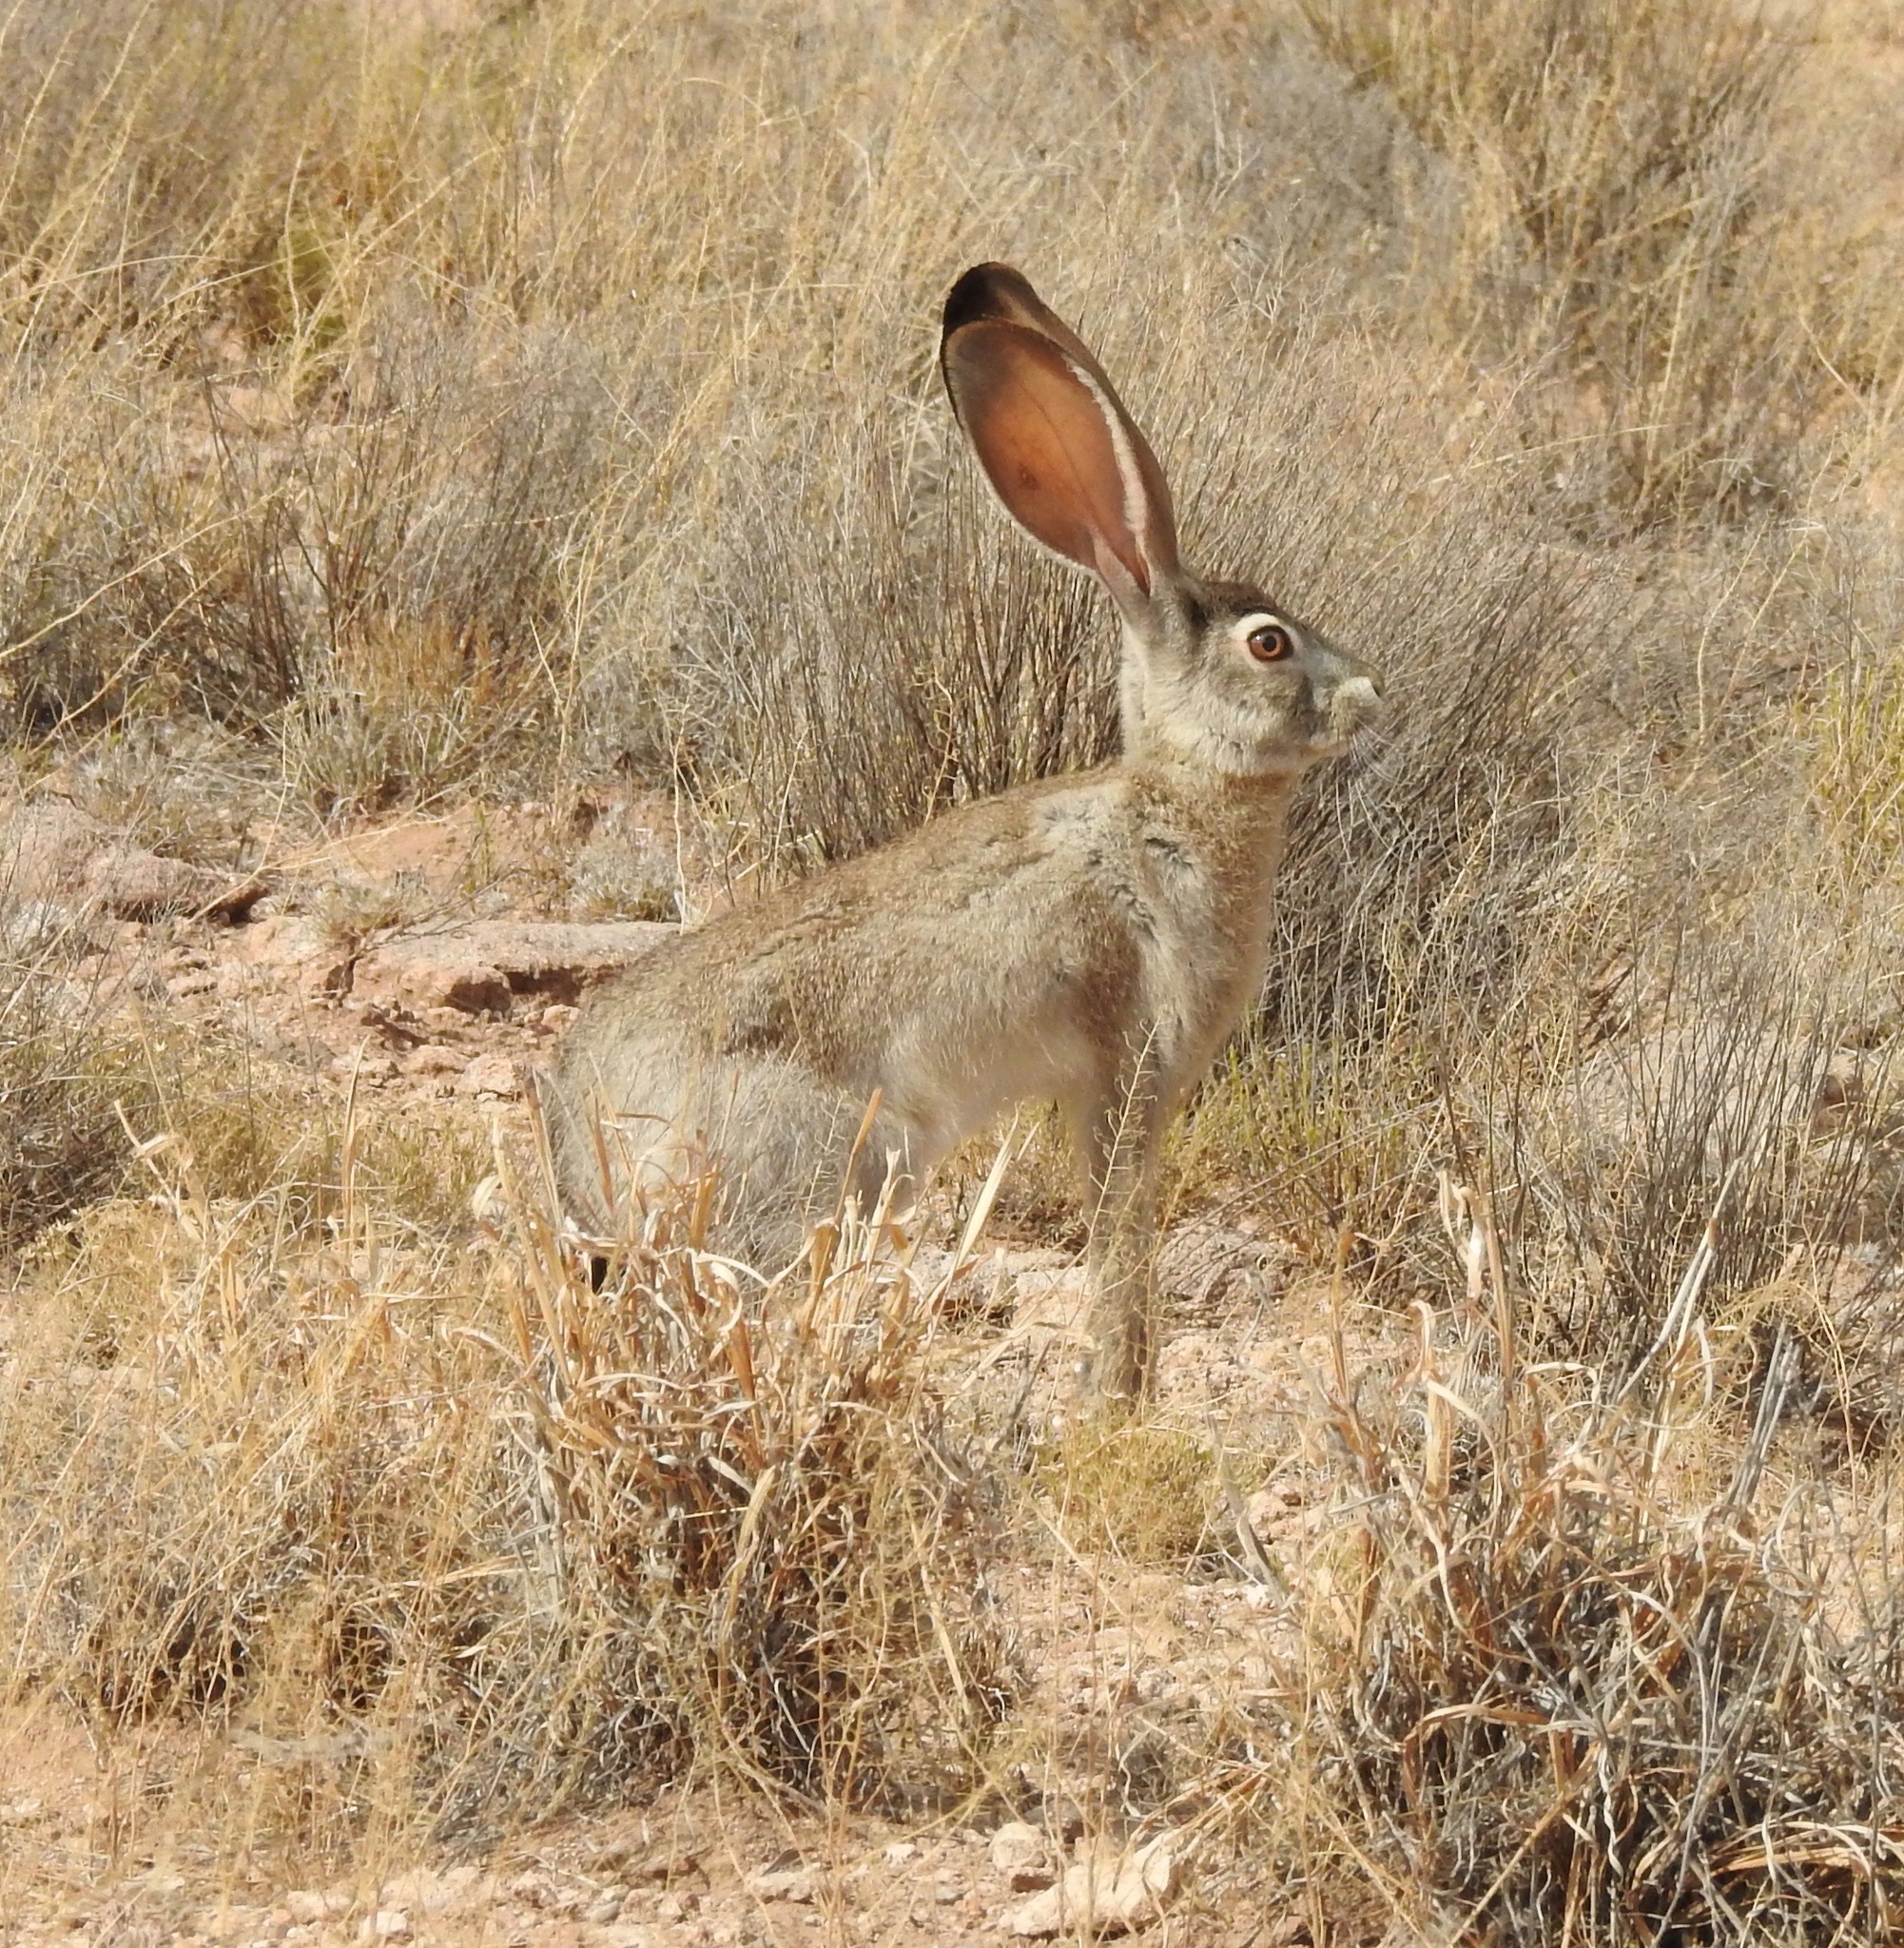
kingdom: Animalia
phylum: Chordata
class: Mammalia
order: Lagomorpha
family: Leporidae
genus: Lepus
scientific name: Lepus californicus
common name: Black-tailed jackrabbit
